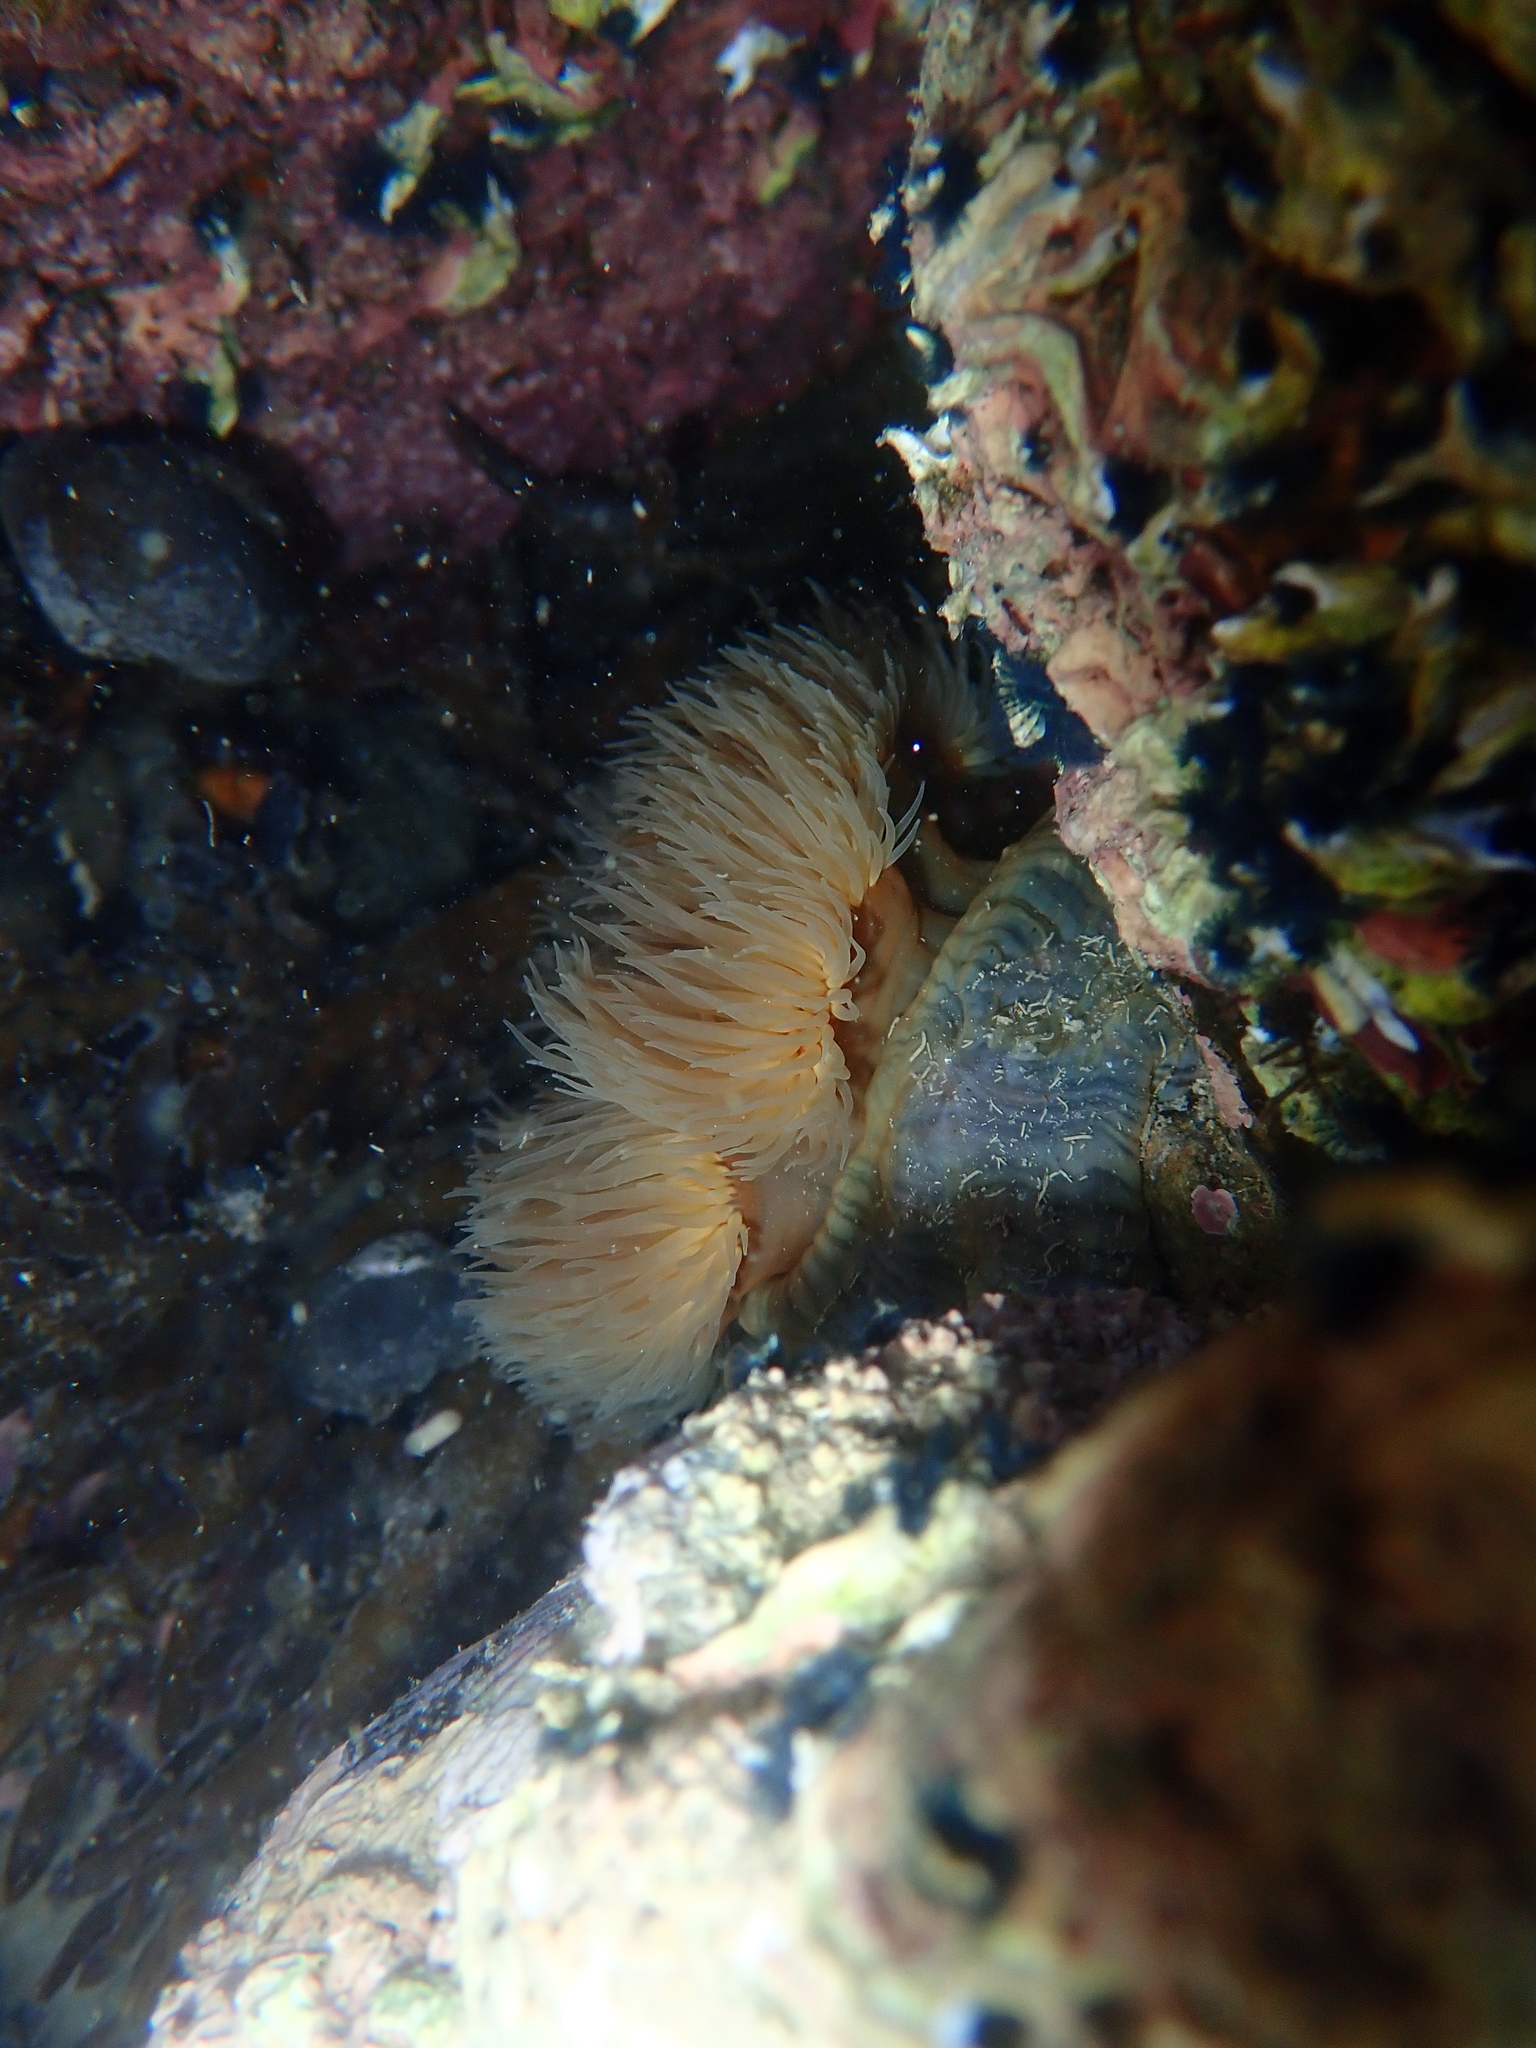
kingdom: Animalia
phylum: Cnidaria
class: Anthozoa
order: Actiniaria
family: Diadumenidae
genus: Diadumene
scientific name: Diadumene neozelanica
